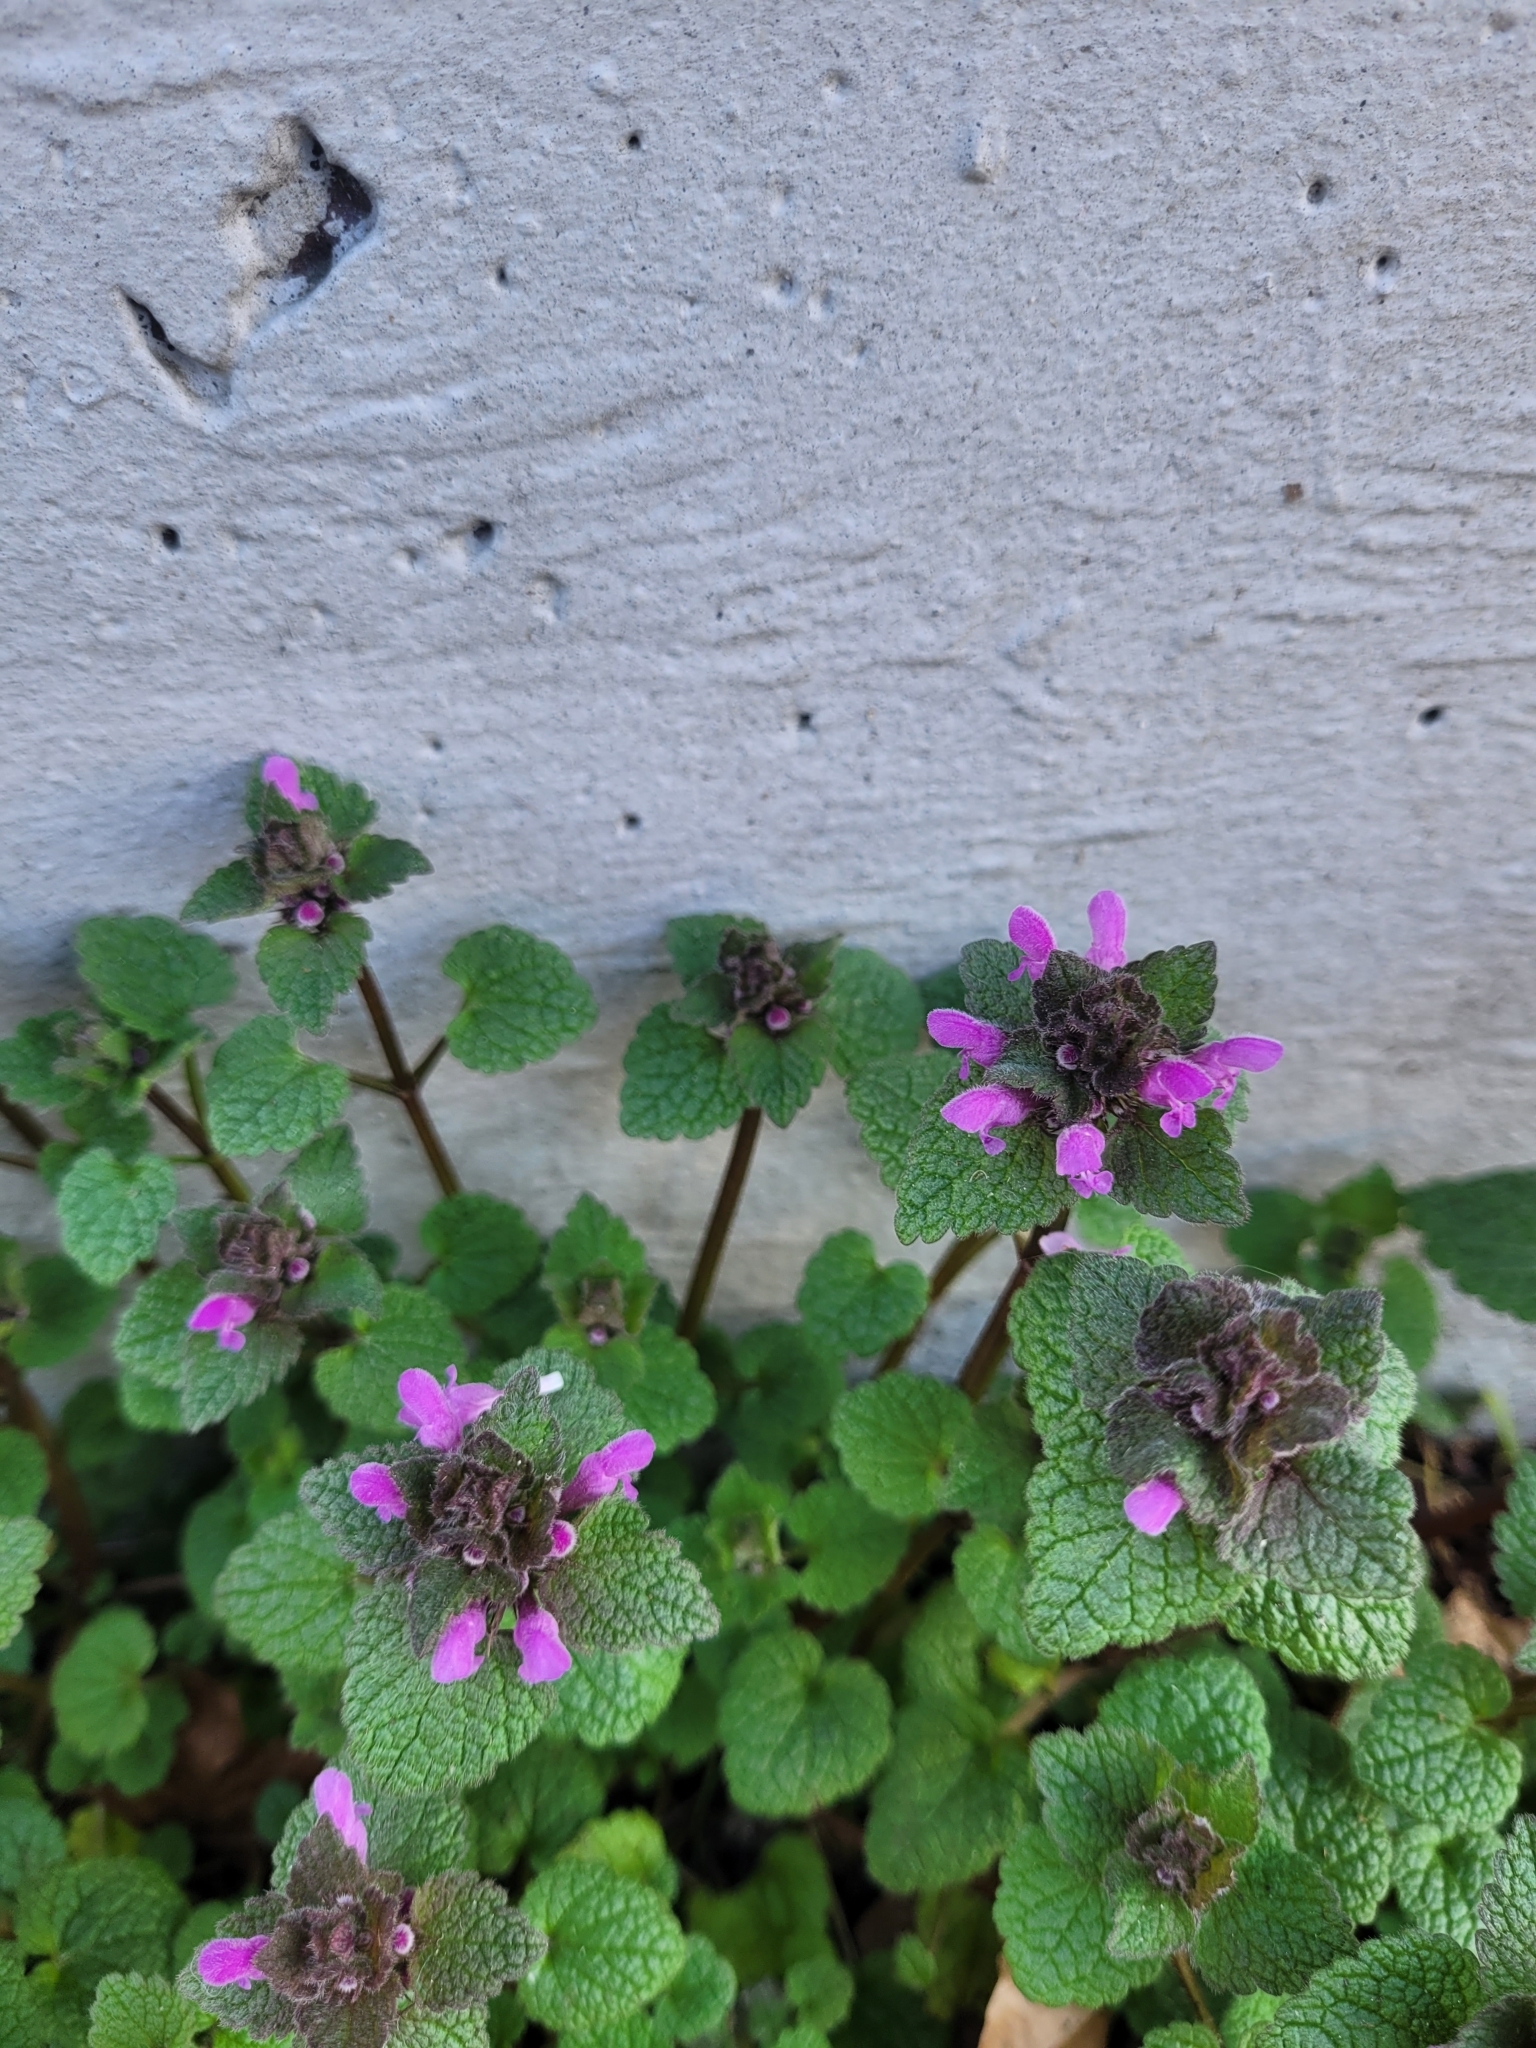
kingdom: Plantae
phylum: Tracheophyta
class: Magnoliopsida
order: Lamiales
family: Lamiaceae
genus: Lamium
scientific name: Lamium purpureum
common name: Red dead-nettle
